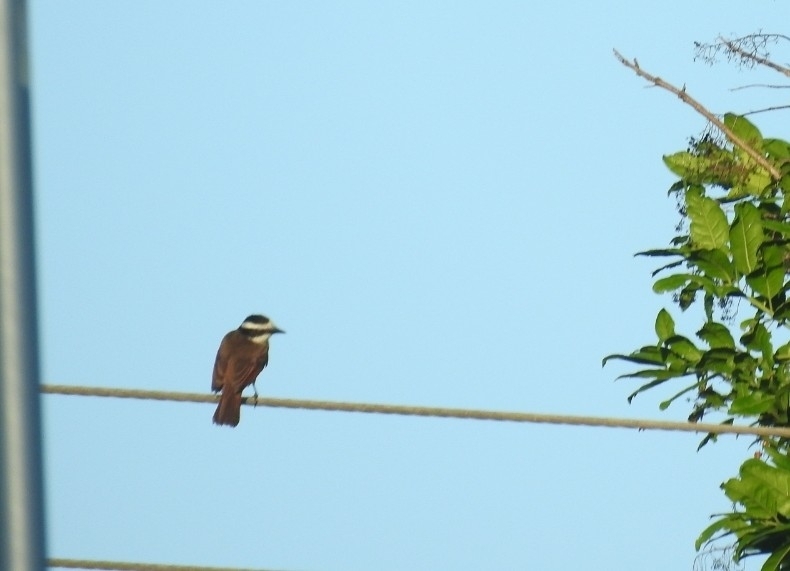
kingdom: Animalia
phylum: Chordata
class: Aves
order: Passeriformes
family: Tyrannidae
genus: Pitangus
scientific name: Pitangus sulphuratus
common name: Great kiskadee
